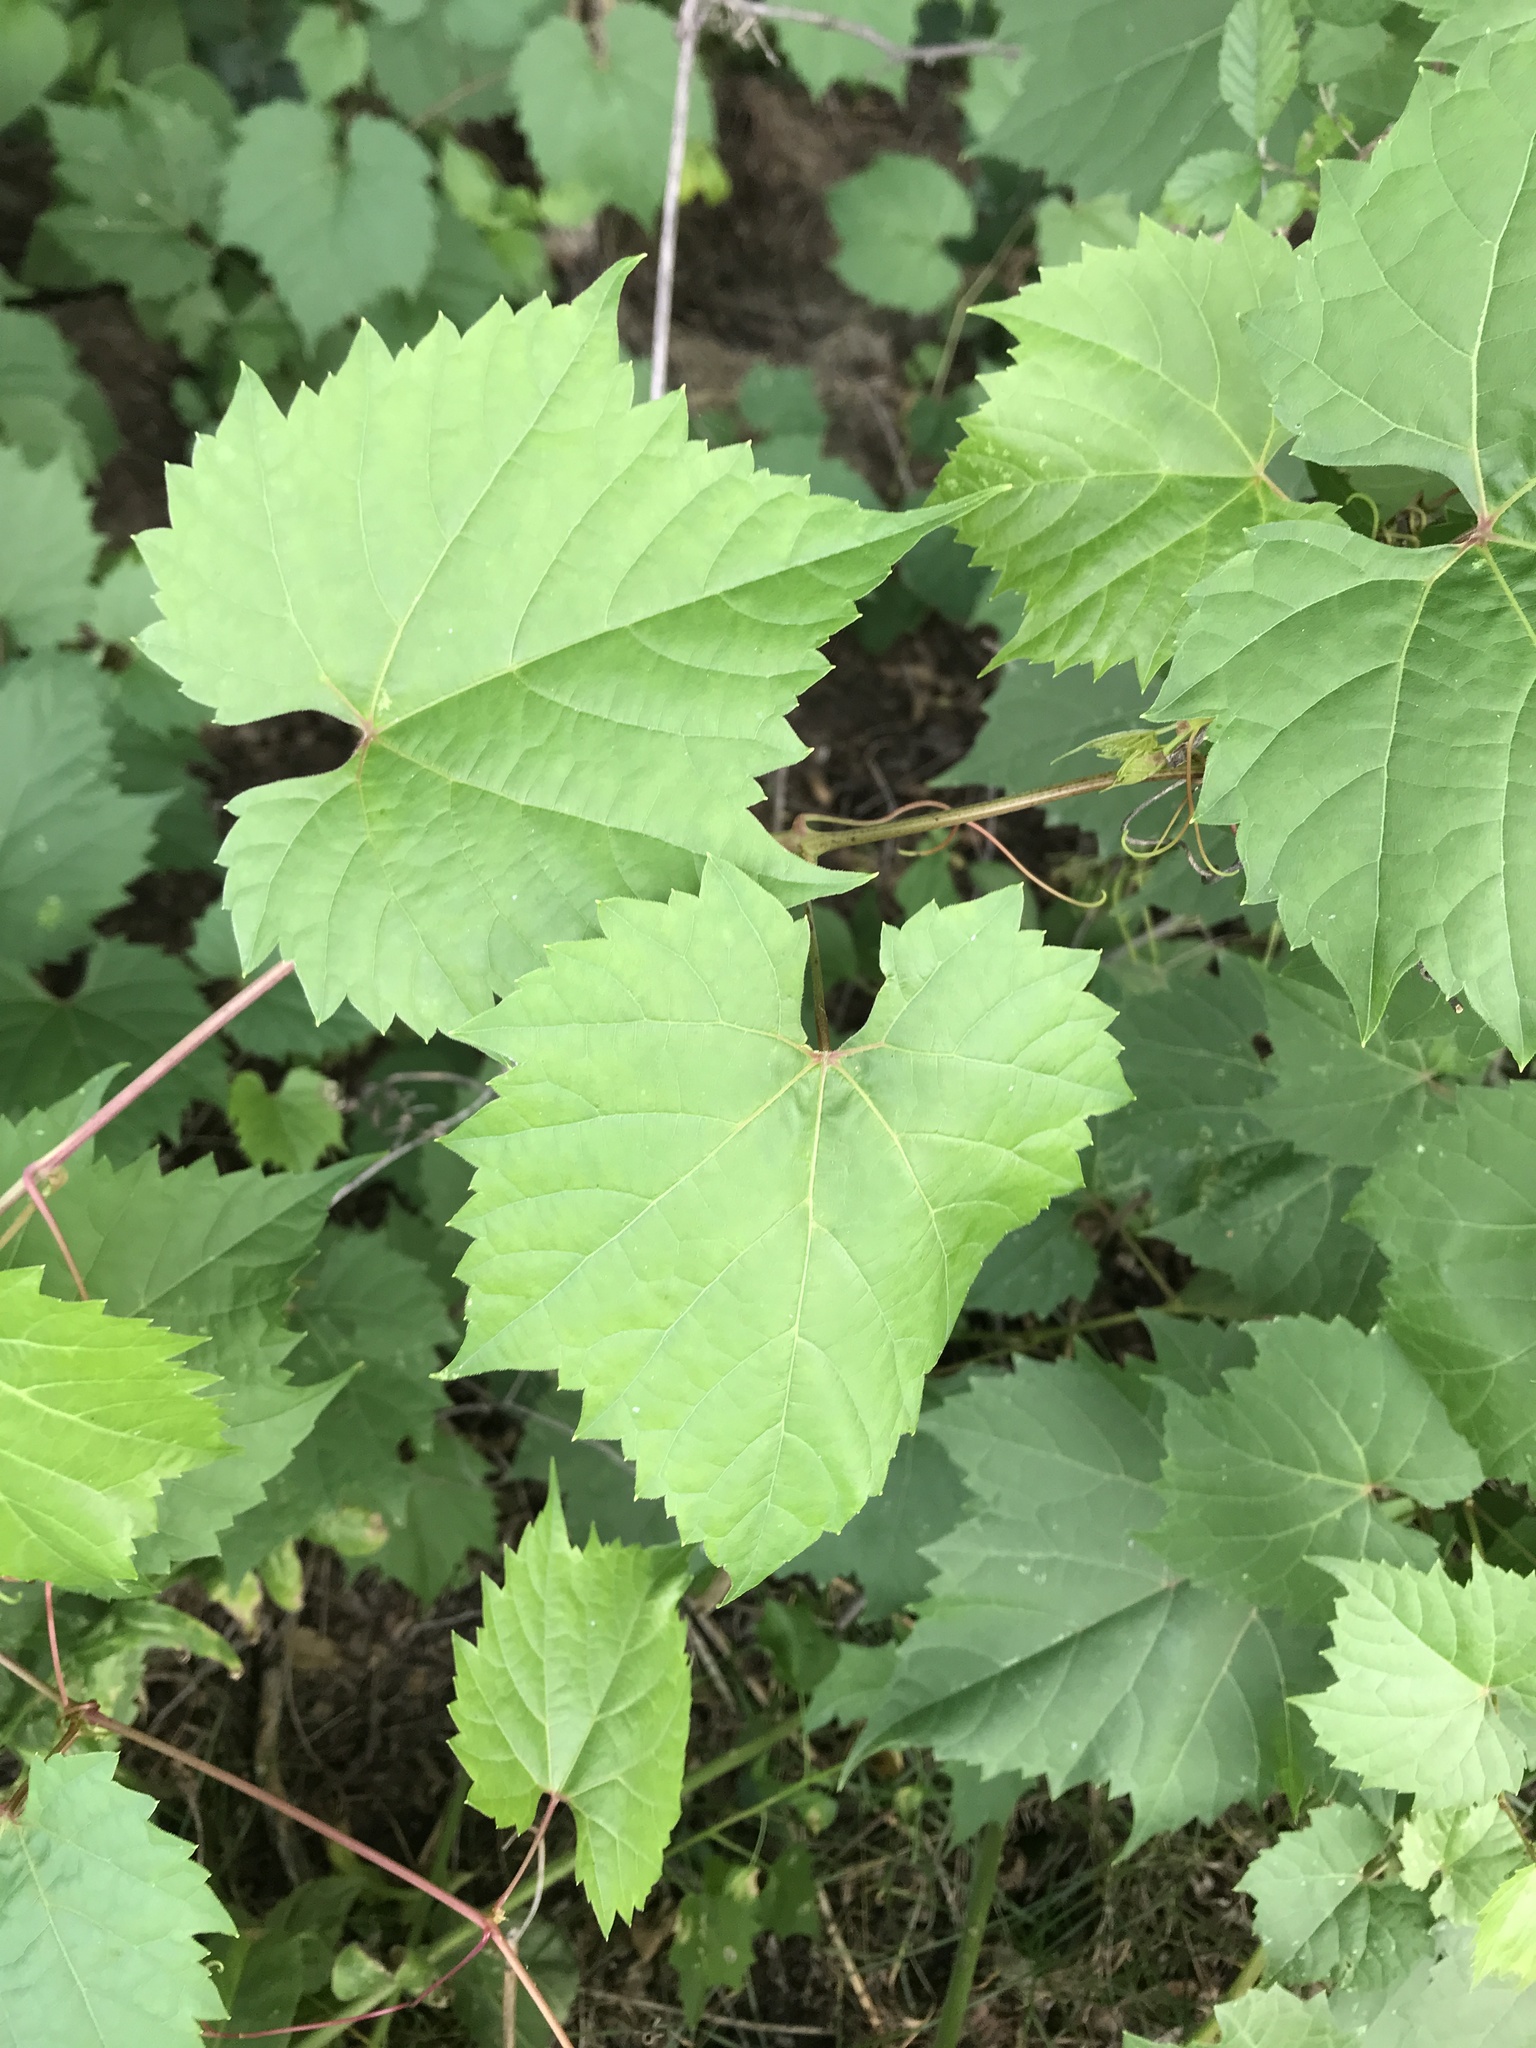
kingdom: Plantae
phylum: Tracheophyta
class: Magnoliopsida
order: Vitales
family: Vitaceae
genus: Vitis
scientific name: Vitis riparia
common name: Frost grape
